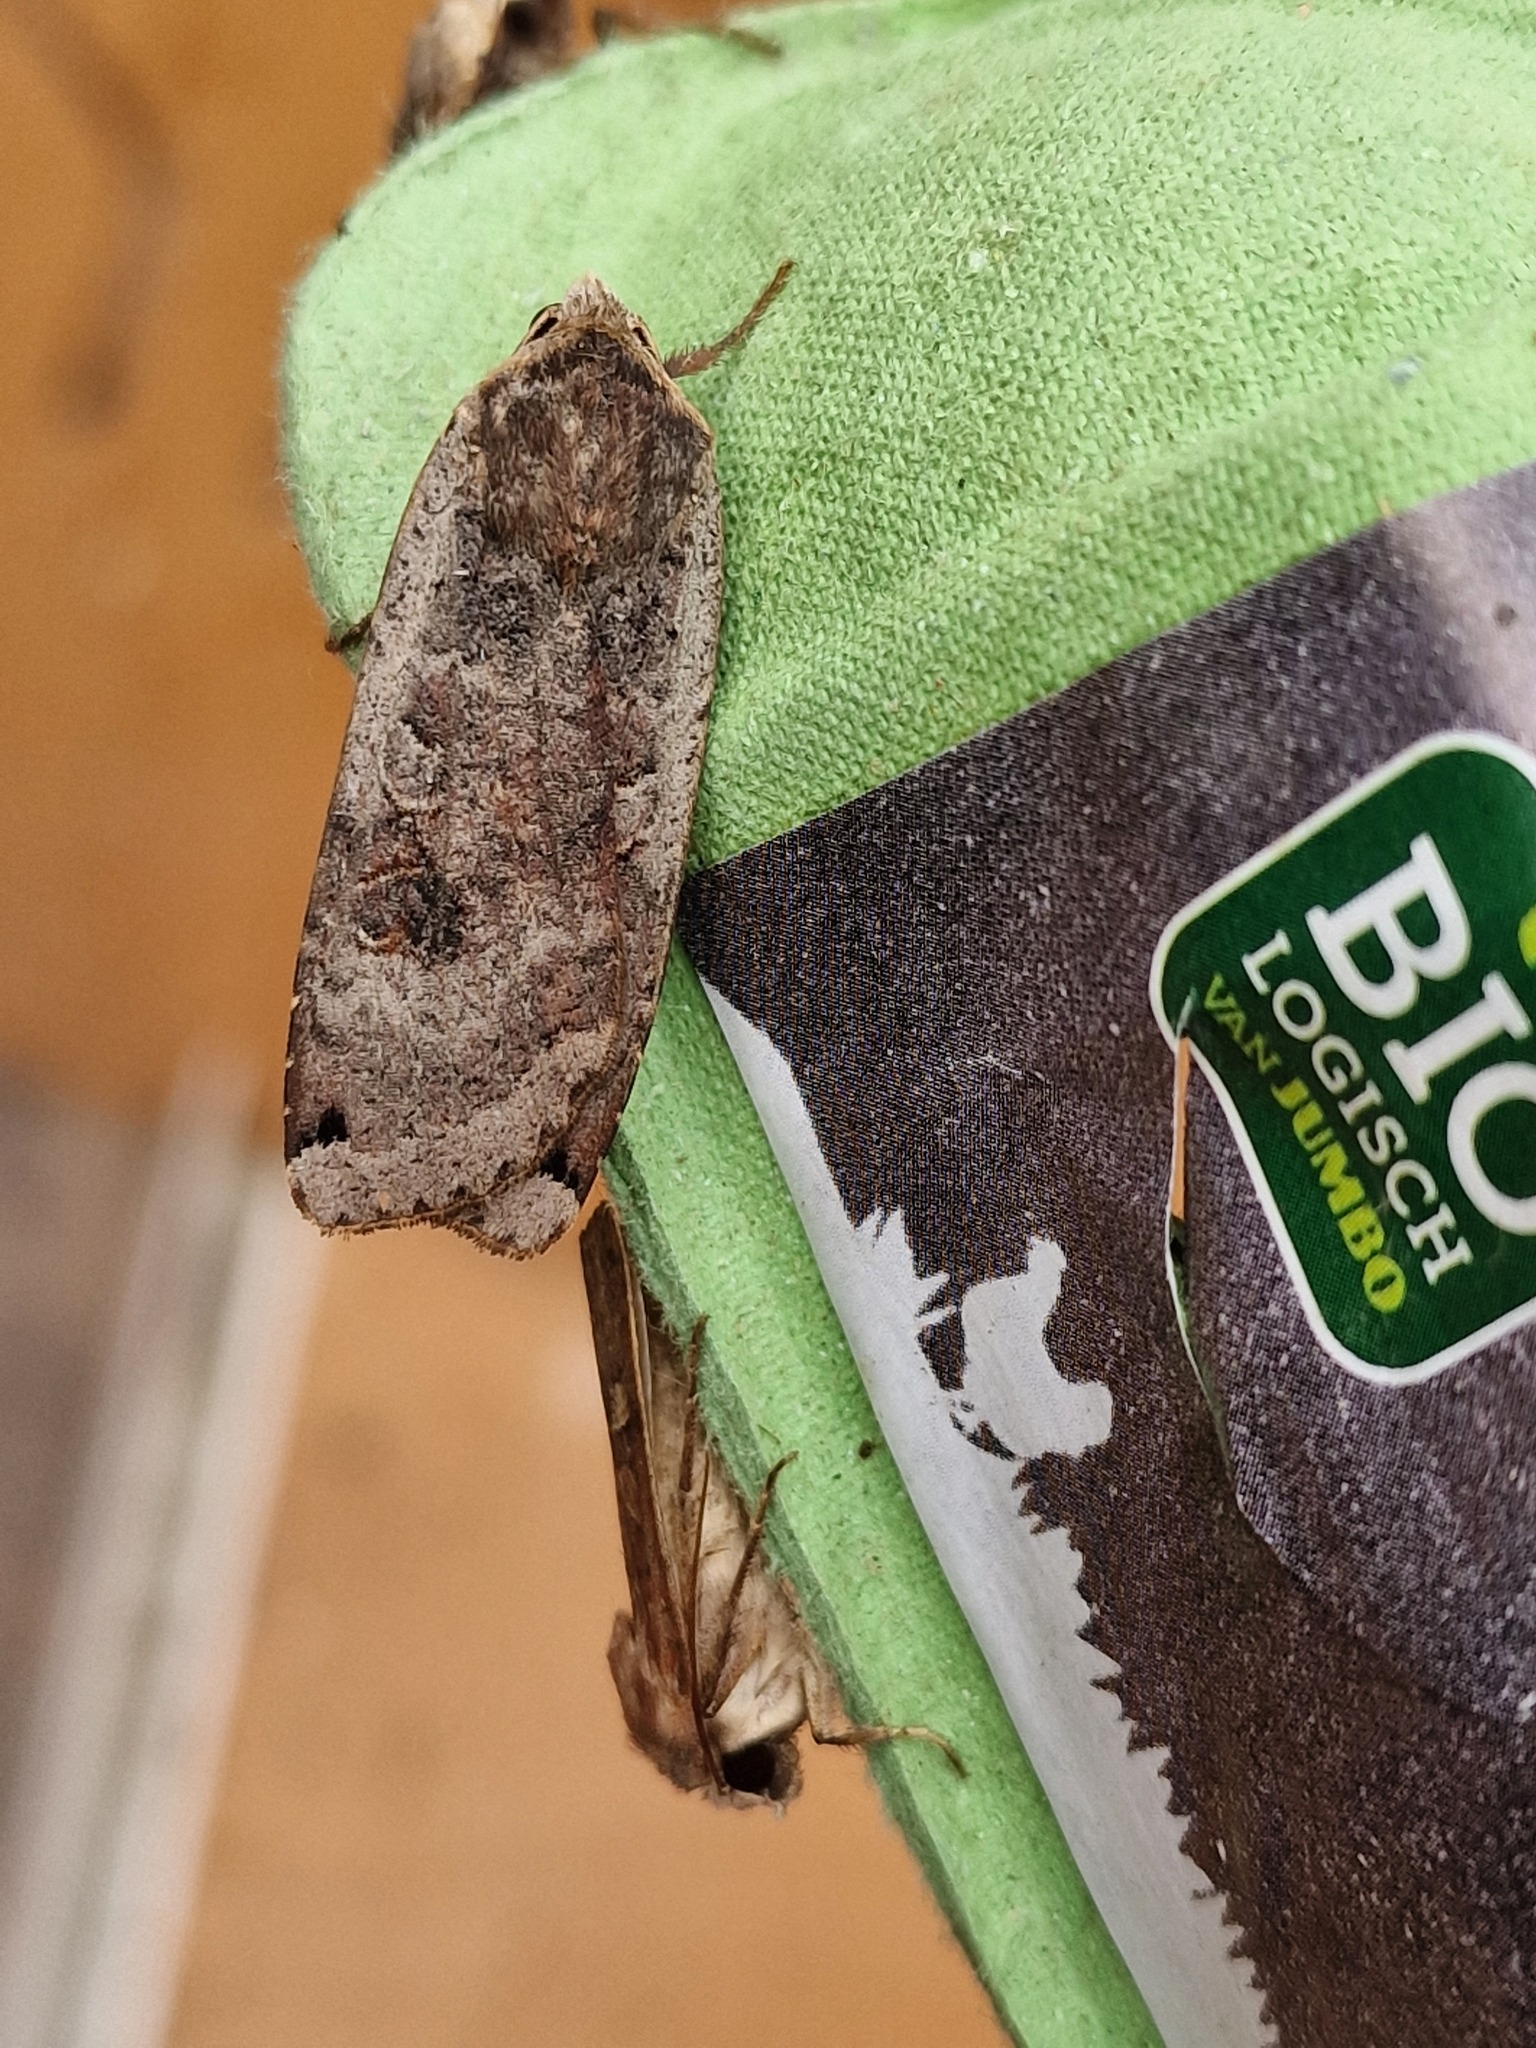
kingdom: Animalia
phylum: Arthropoda
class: Insecta
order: Lepidoptera
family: Noctuidae
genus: Noctua
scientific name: Noctua pronuba
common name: Large yellow underwing
